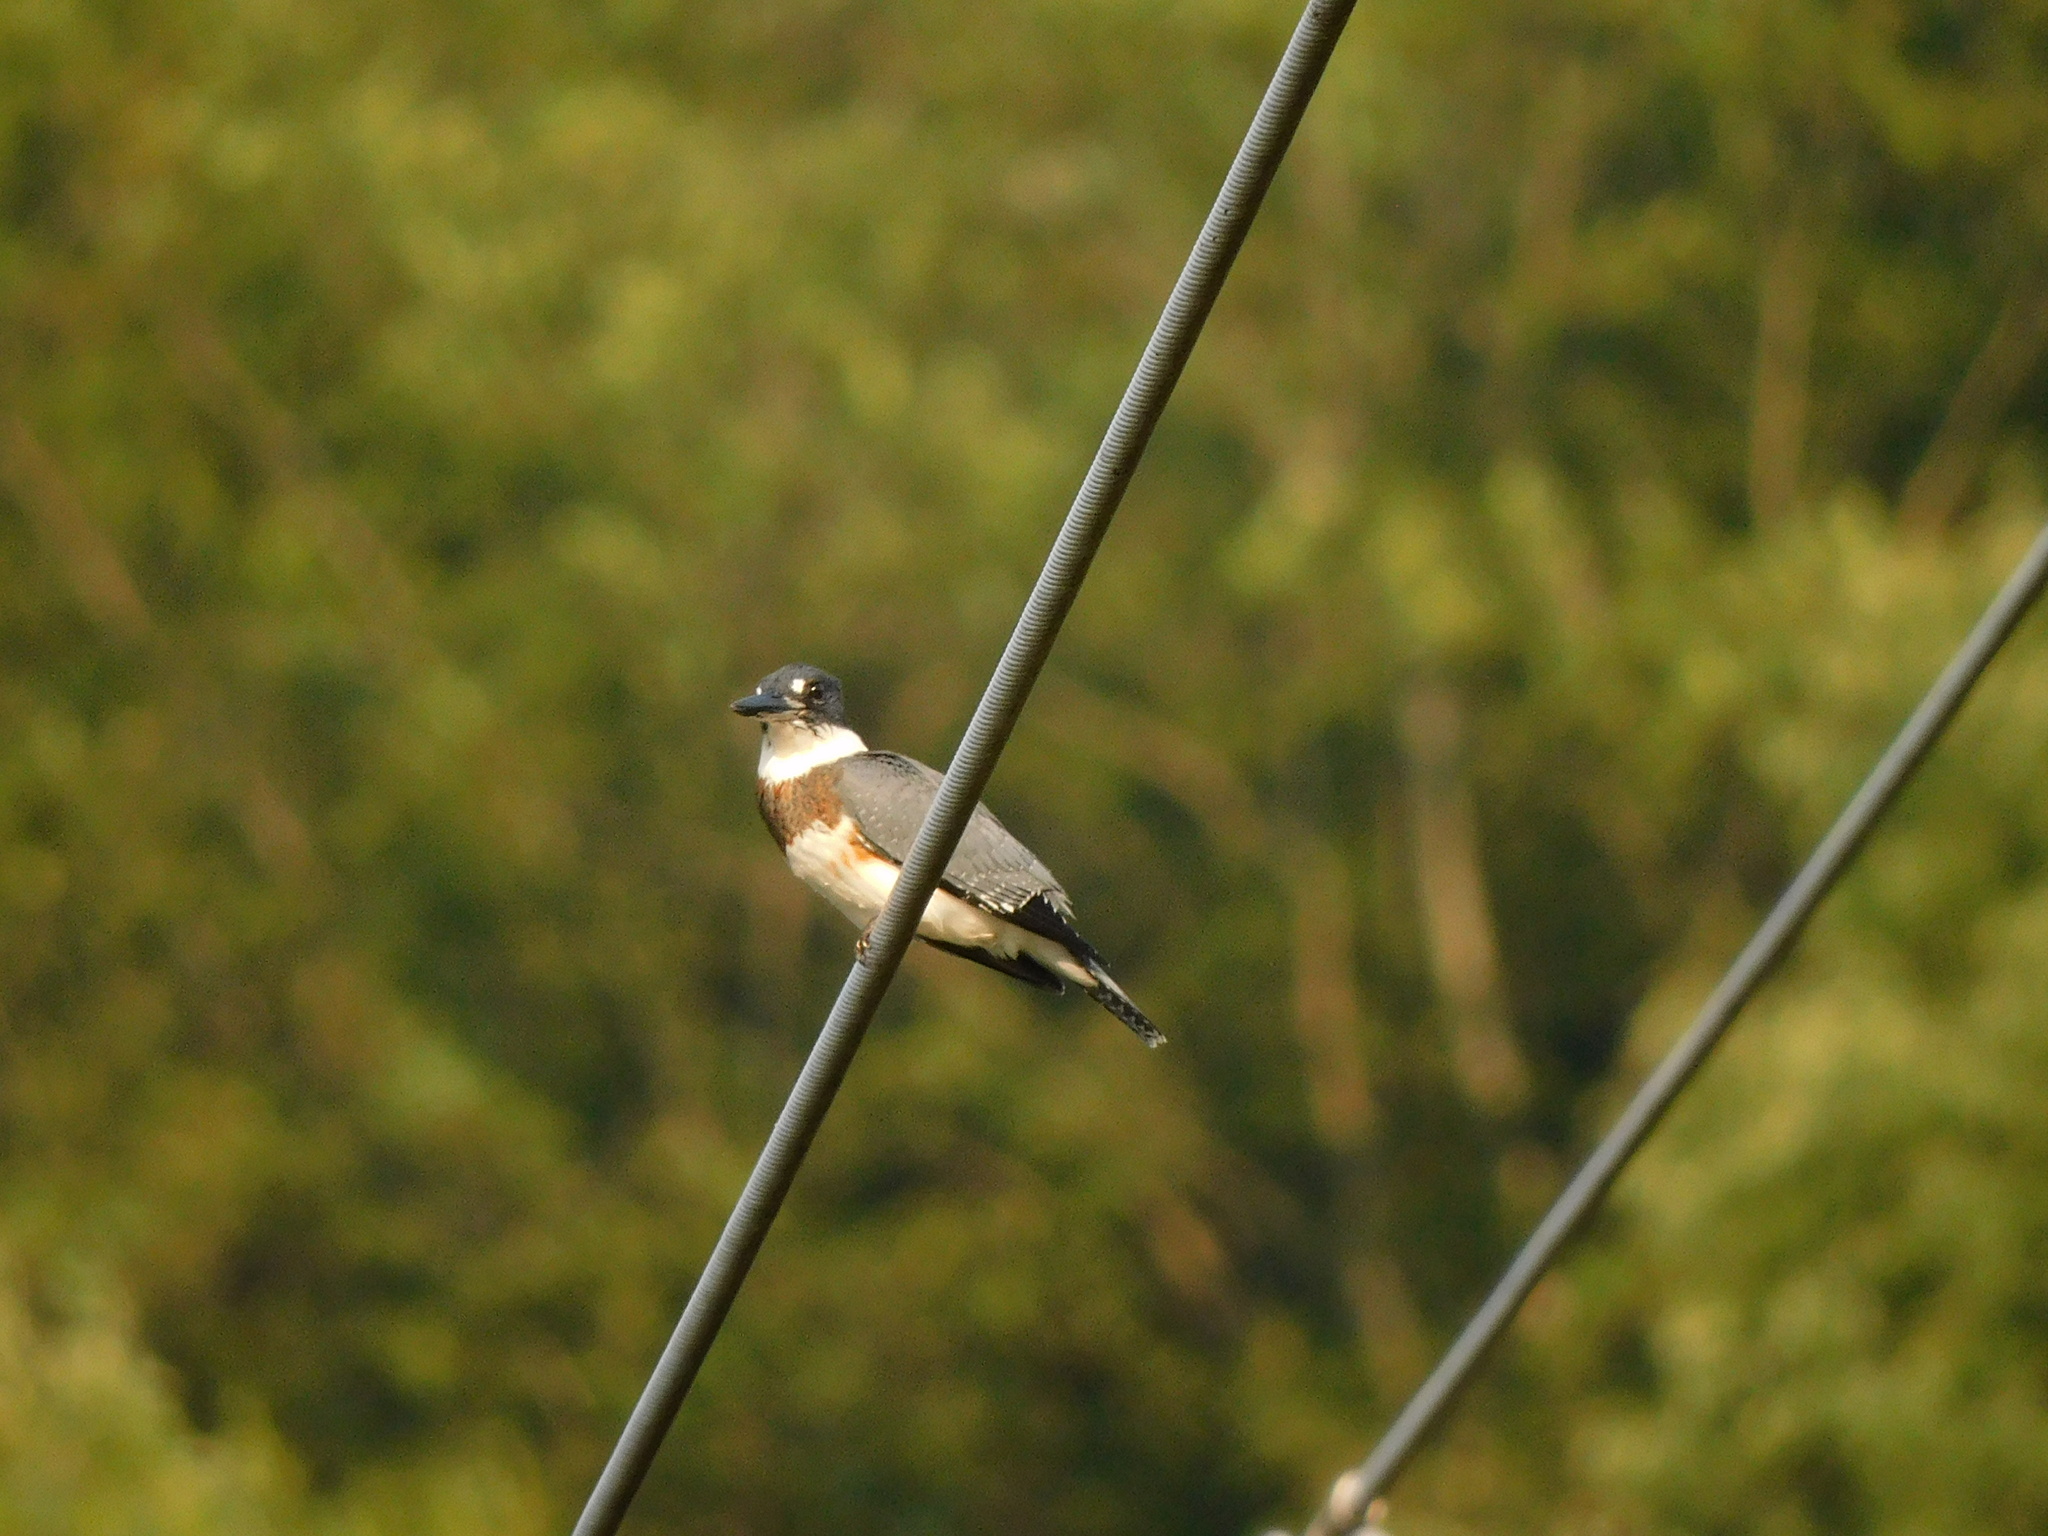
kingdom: Animalia
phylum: Chordata
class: Aves
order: Coraciiformes
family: Alcedinidae
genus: Megaceryle
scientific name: Megaceryle alcyon
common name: Belted kingfisher
